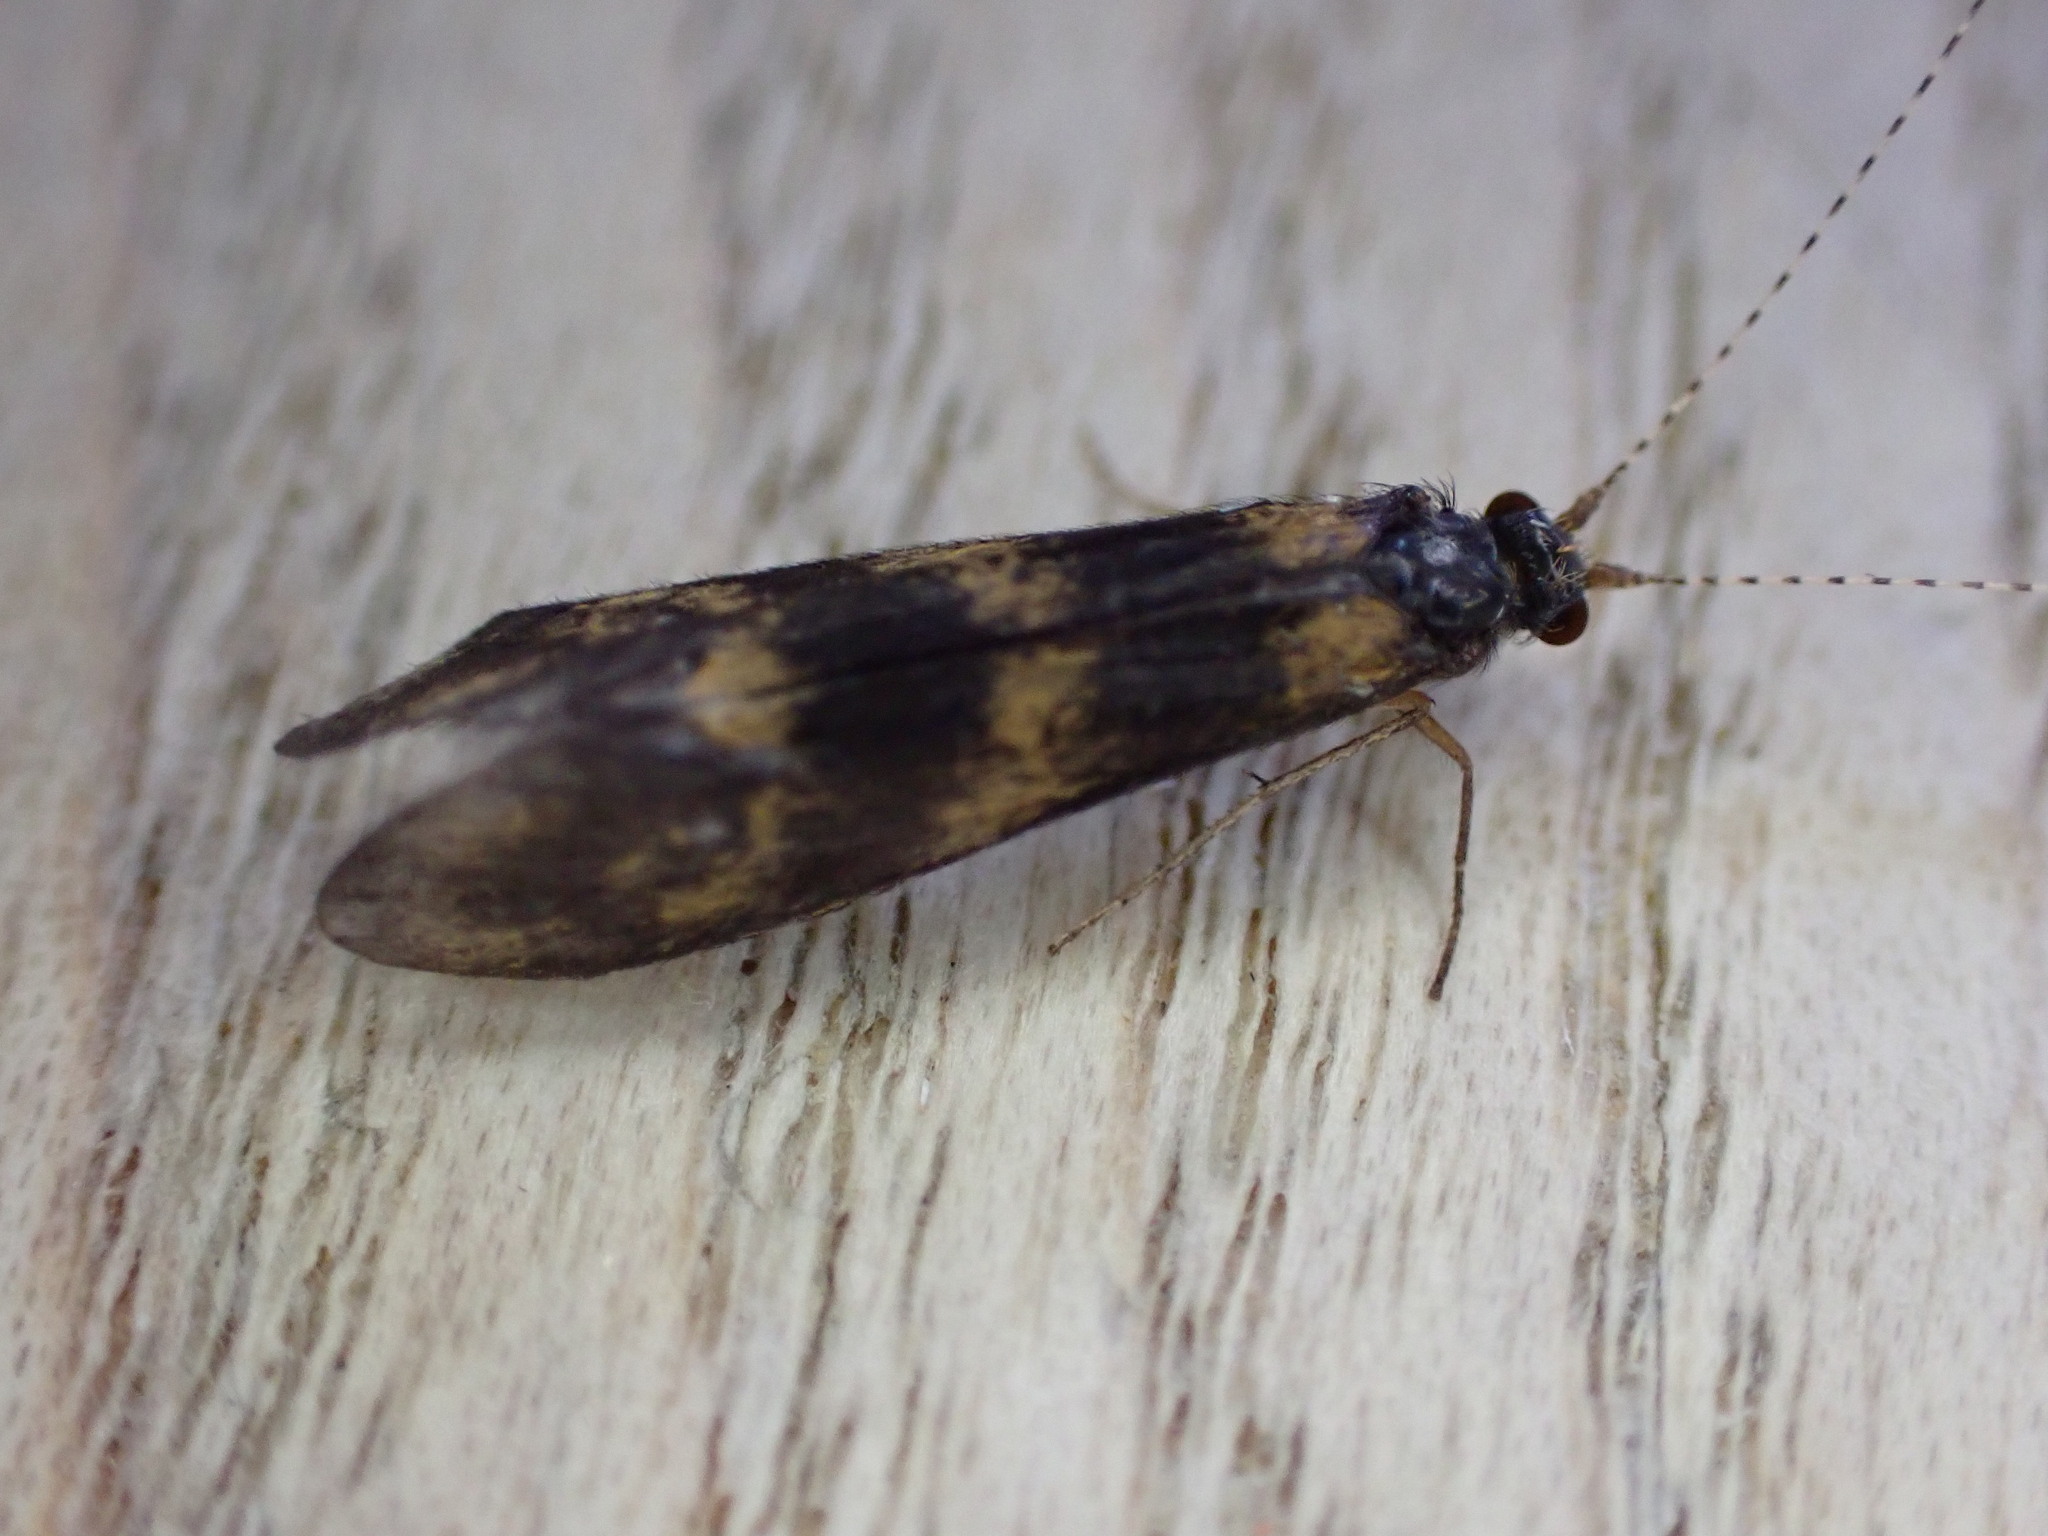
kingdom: Animalia
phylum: Arthropoda
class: Insecta
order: Trichoptera
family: Leptoceridae
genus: Mystacides
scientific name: Mystacides longicornis
